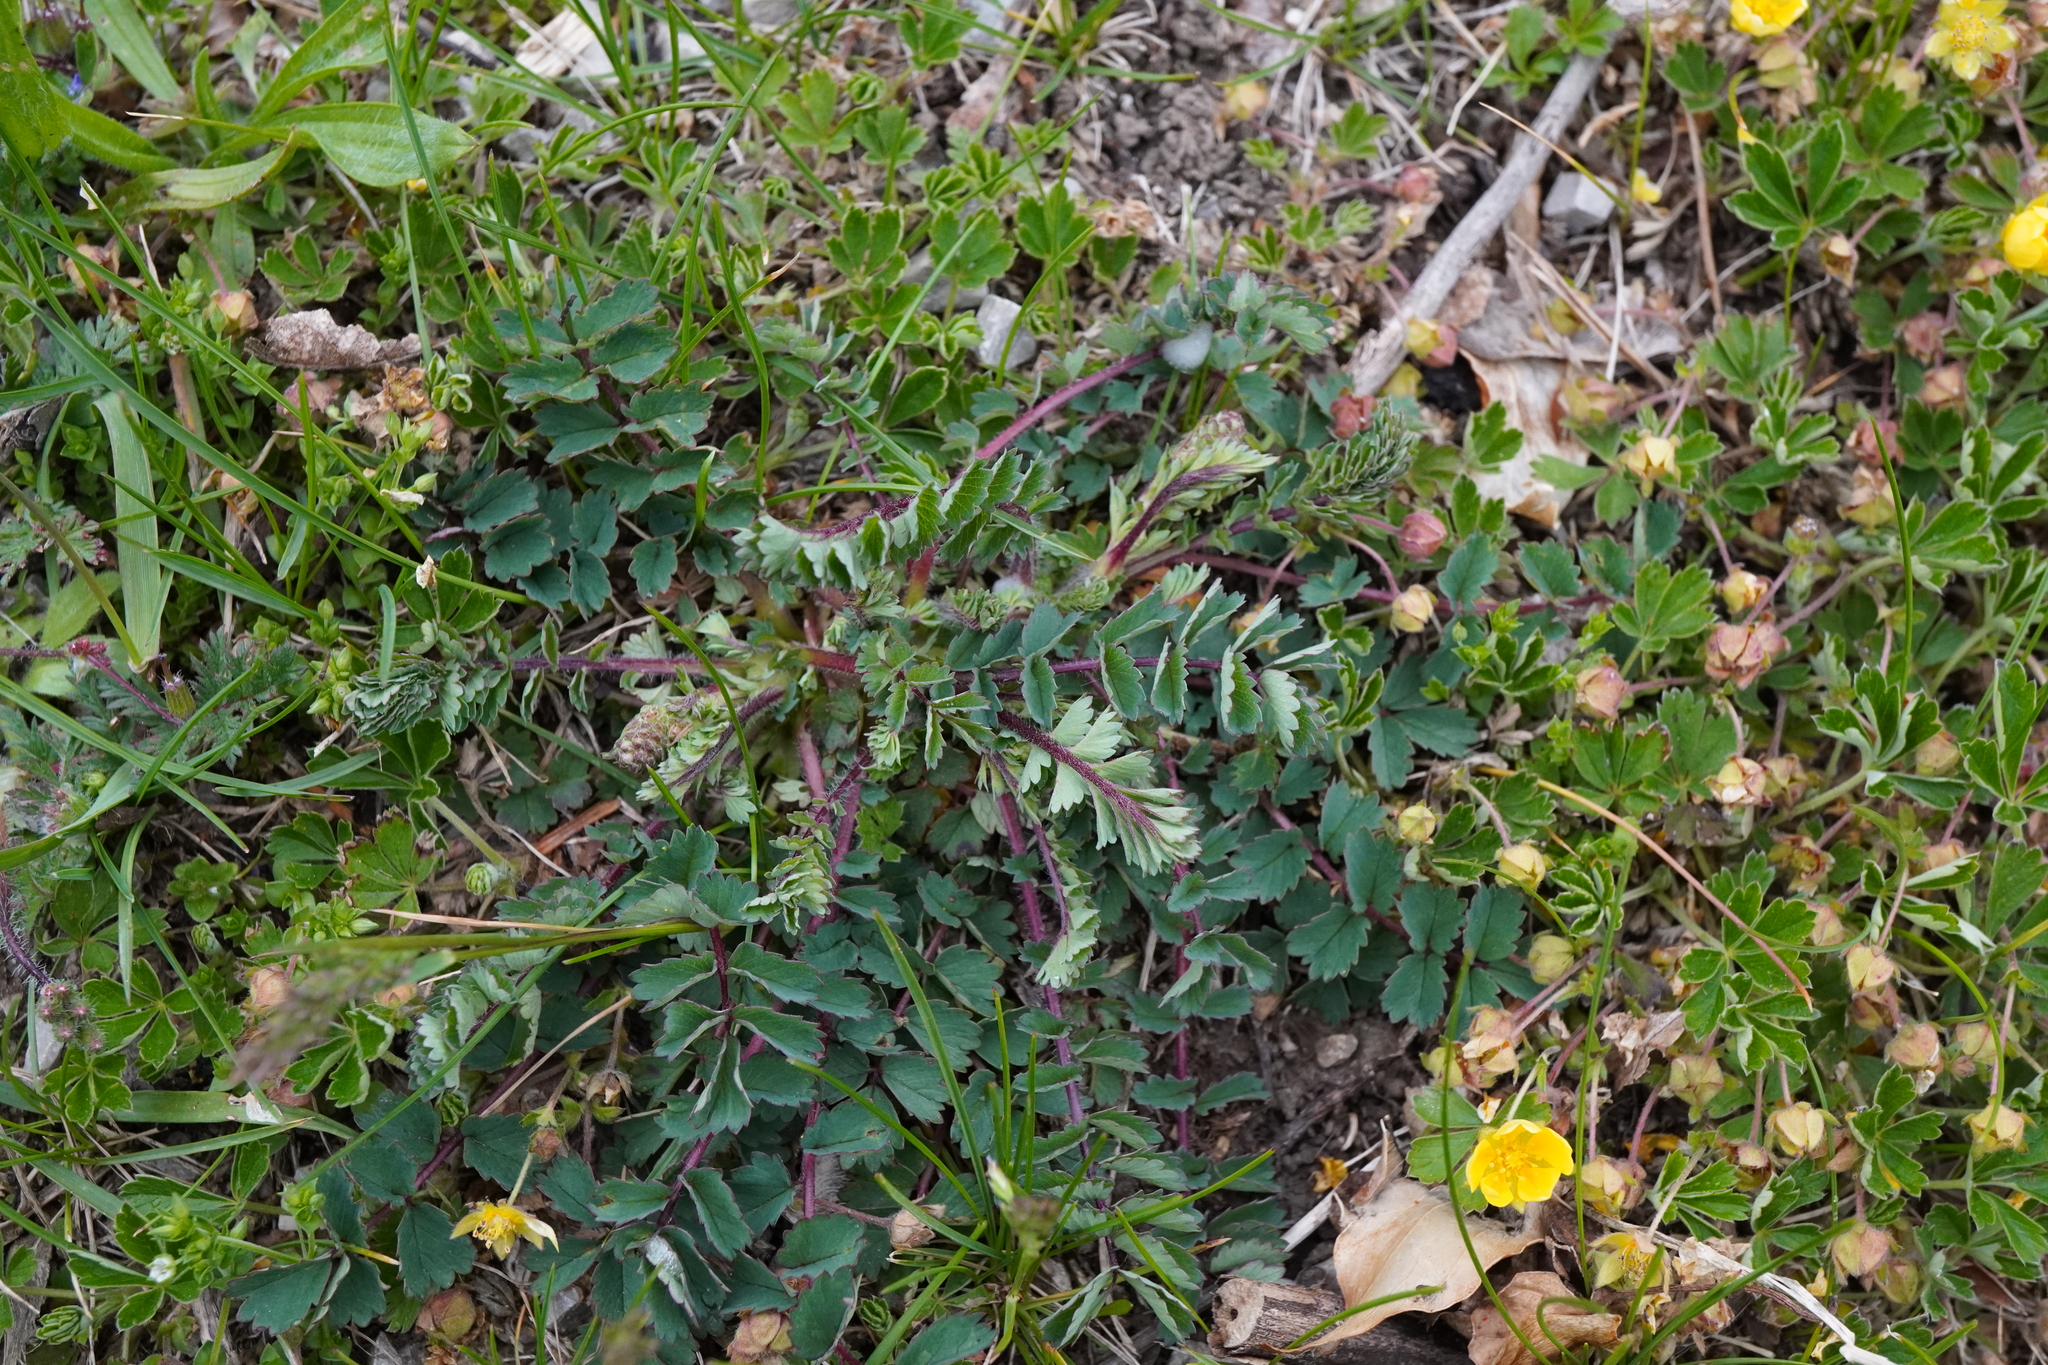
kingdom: Plantae
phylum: Tracheophyta
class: Magnoliopsida
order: Rosales
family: Rosaceae
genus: Poterium
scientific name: Poterium sanguisorba
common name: Salad burnet
